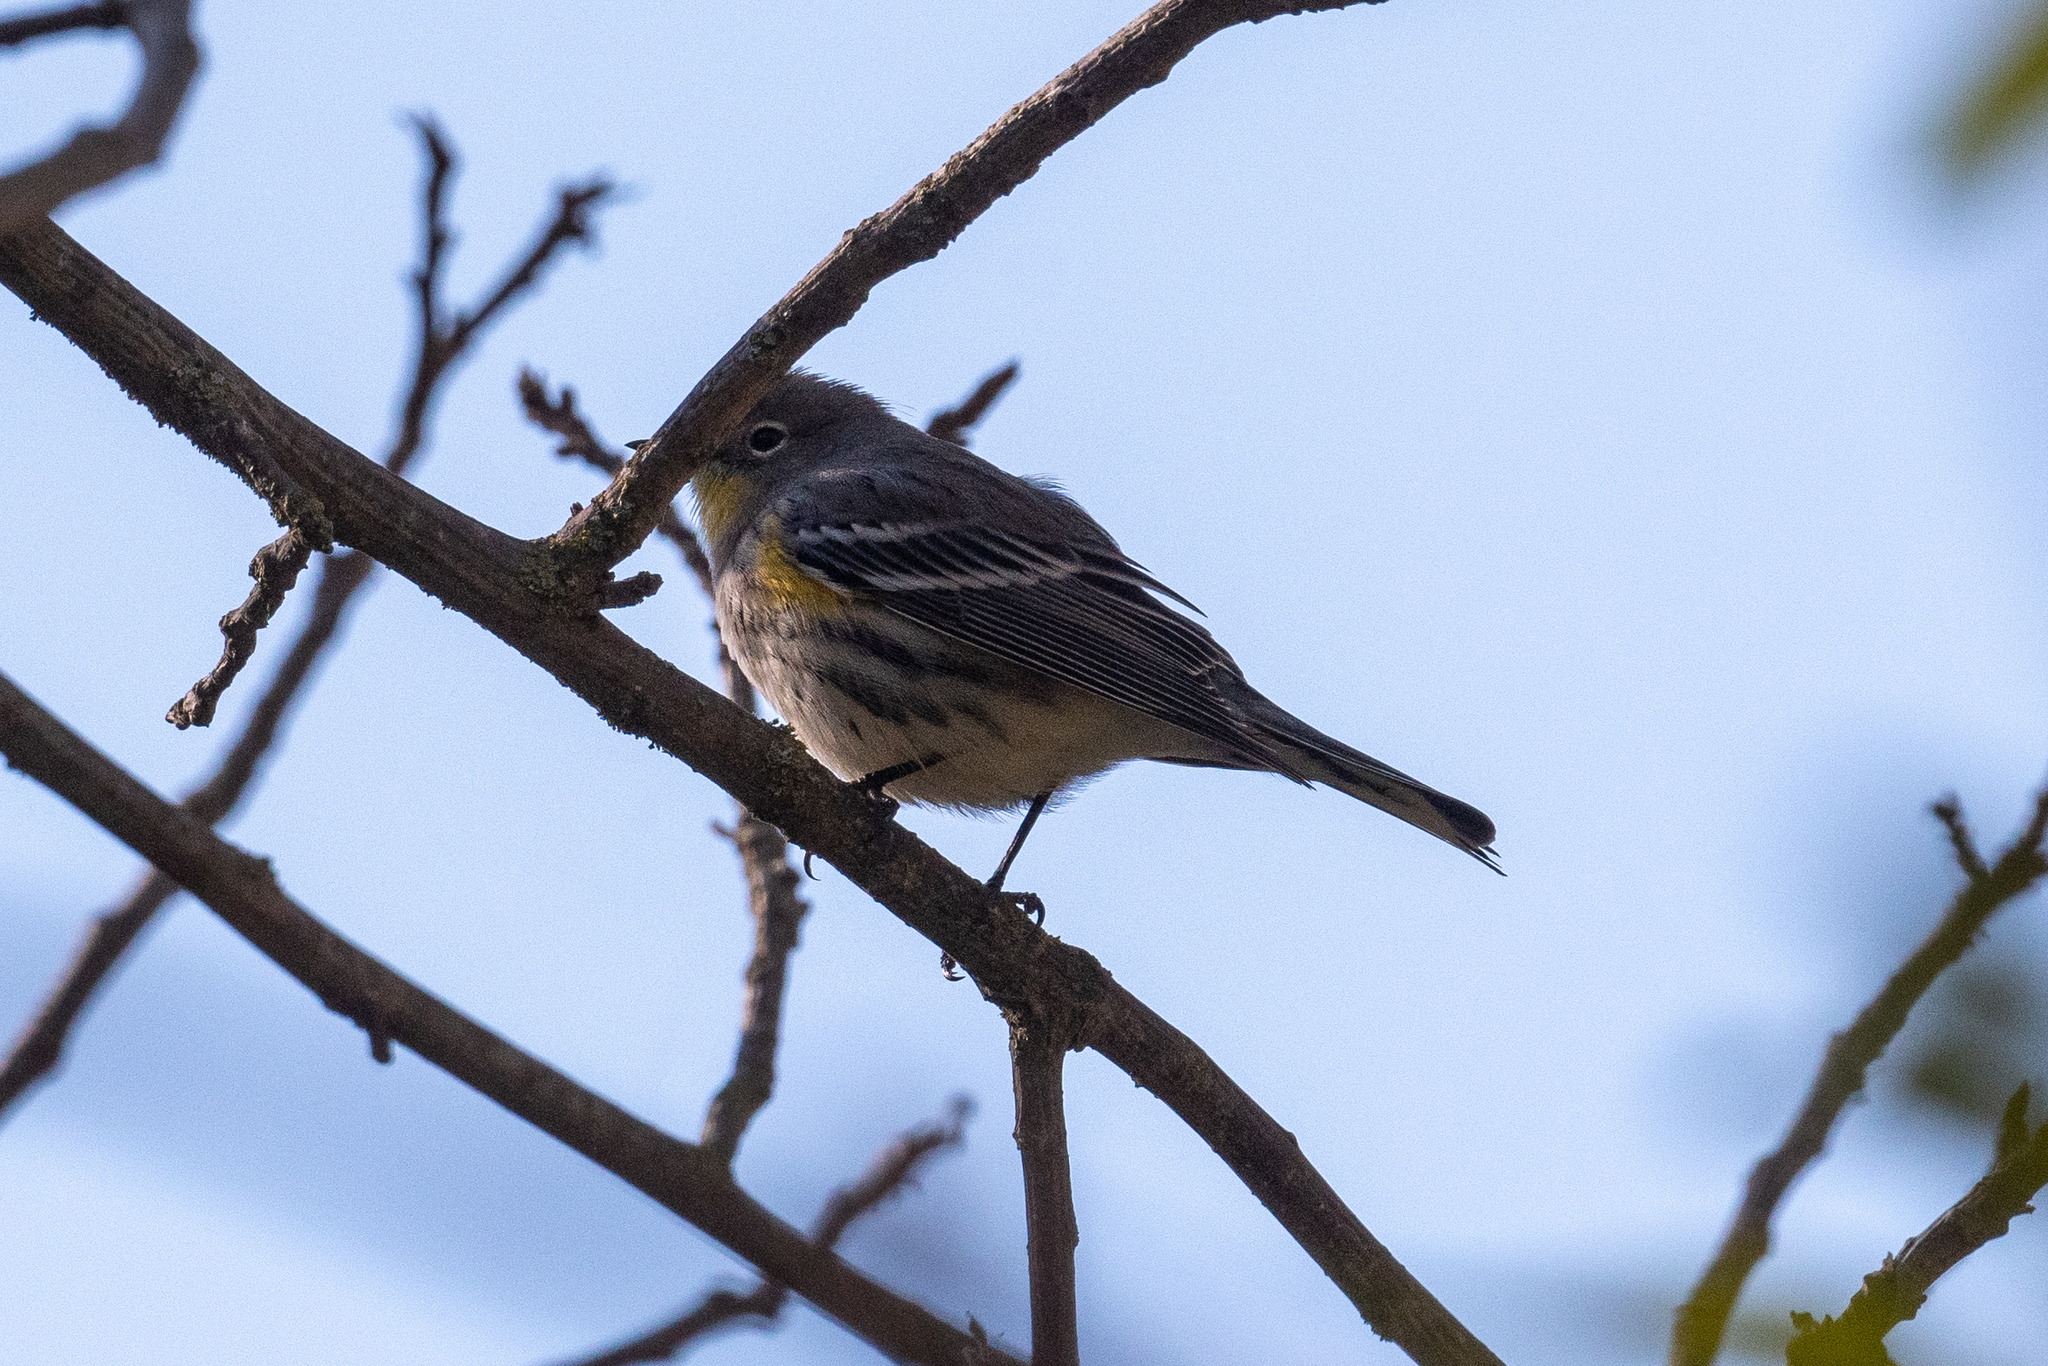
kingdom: Animalia
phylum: Chordata
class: Aves
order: Passeriformes
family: Parulidae
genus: Setophaga
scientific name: Setophaga coronata
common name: Myrtle warbler
